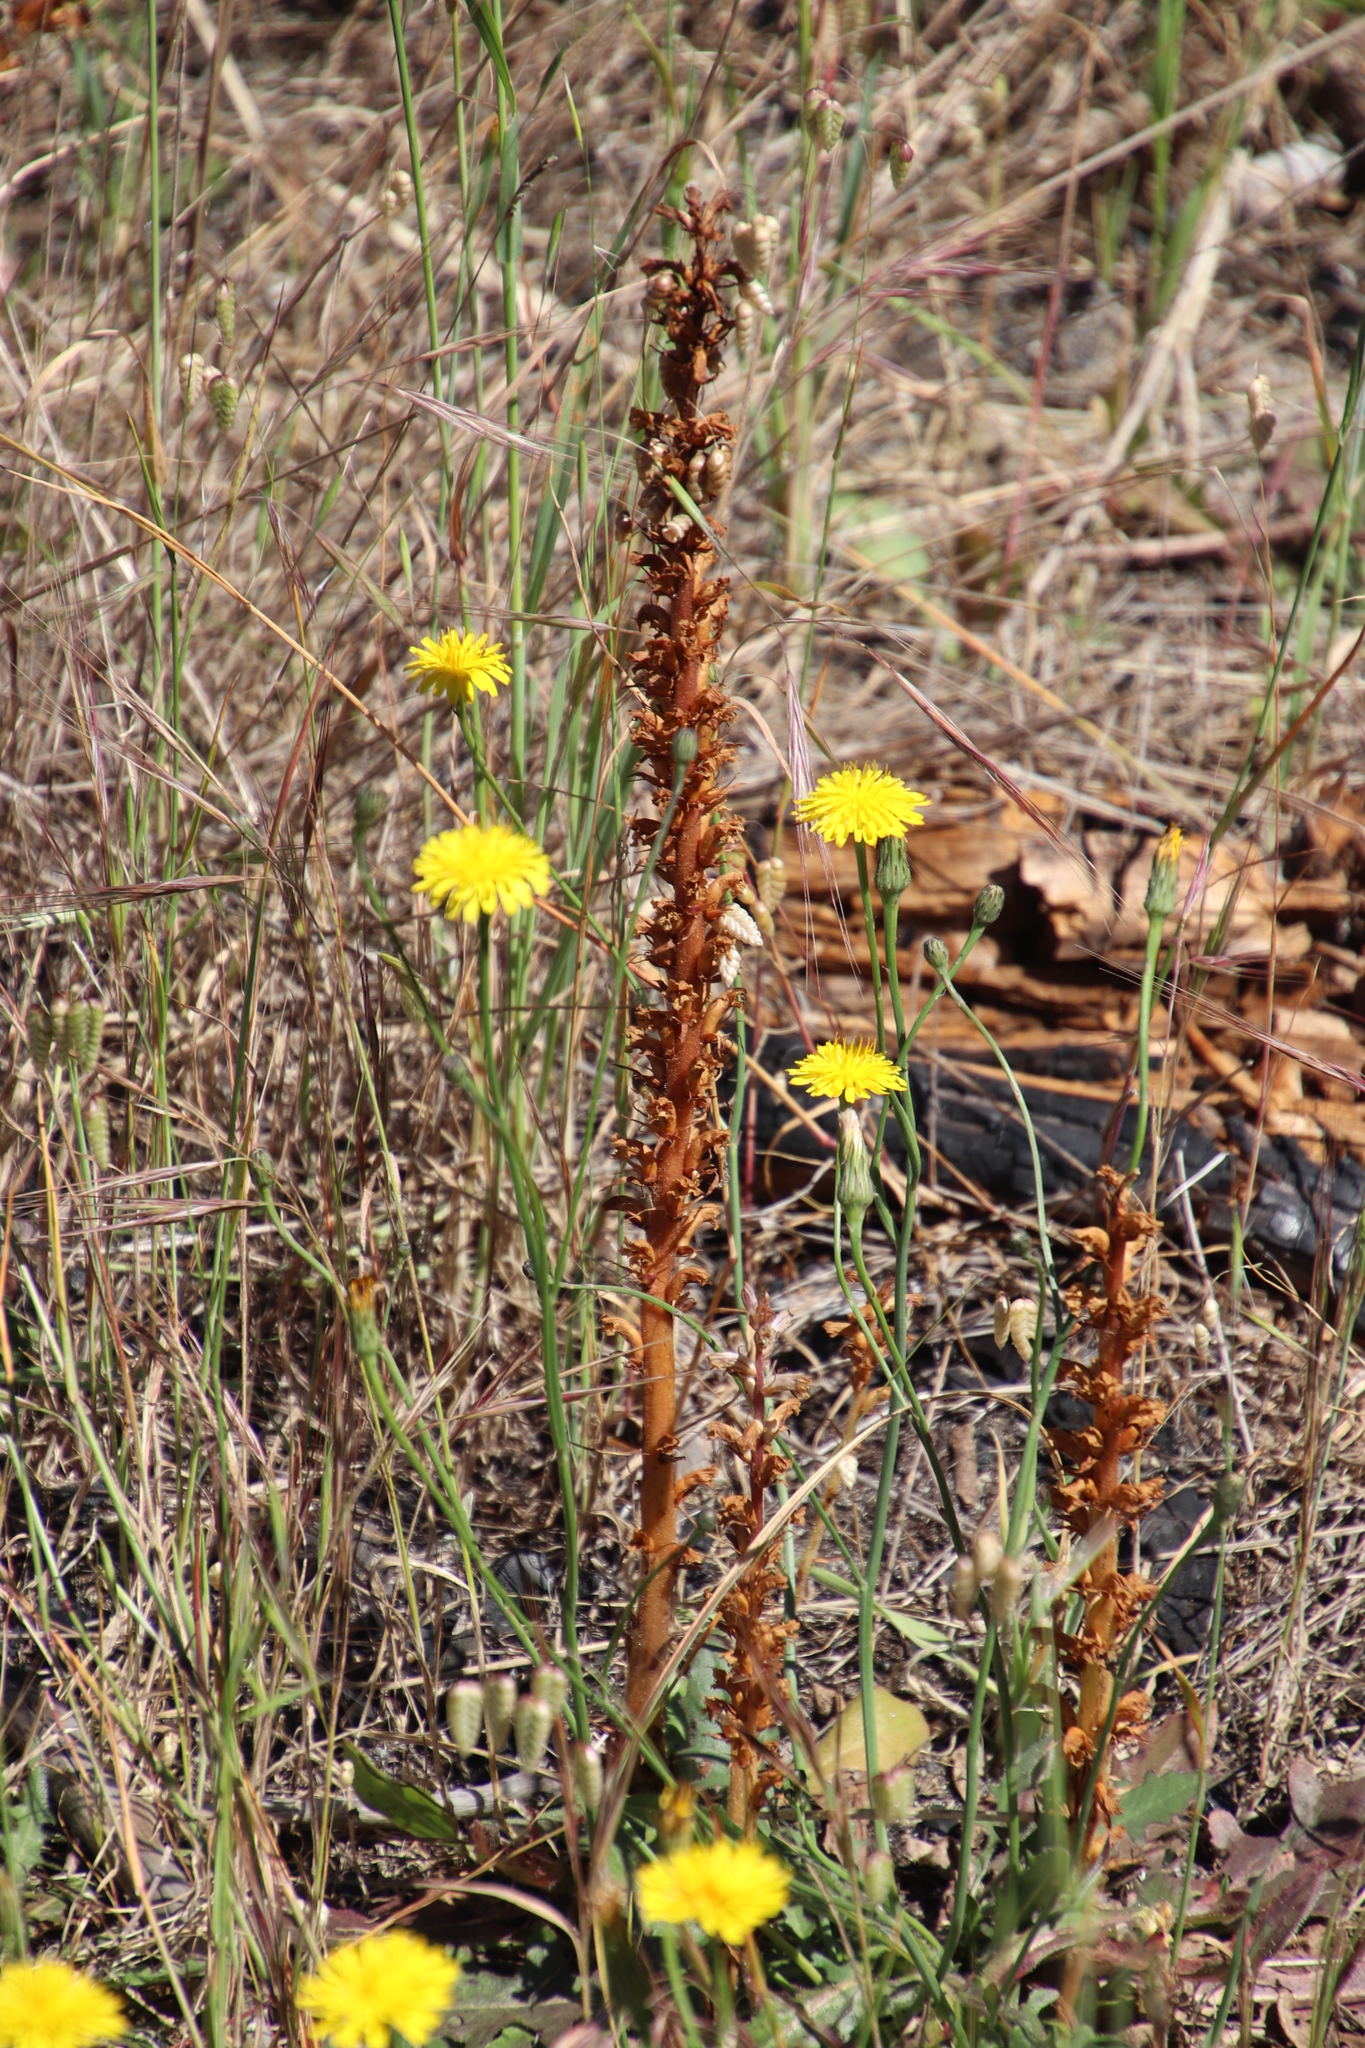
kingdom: Plantae
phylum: Tracheophyta
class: Magnoliopsida
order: Lamiales
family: Orobanchaceae
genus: Orobanche
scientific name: Orobanche minor
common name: Common broomrape
